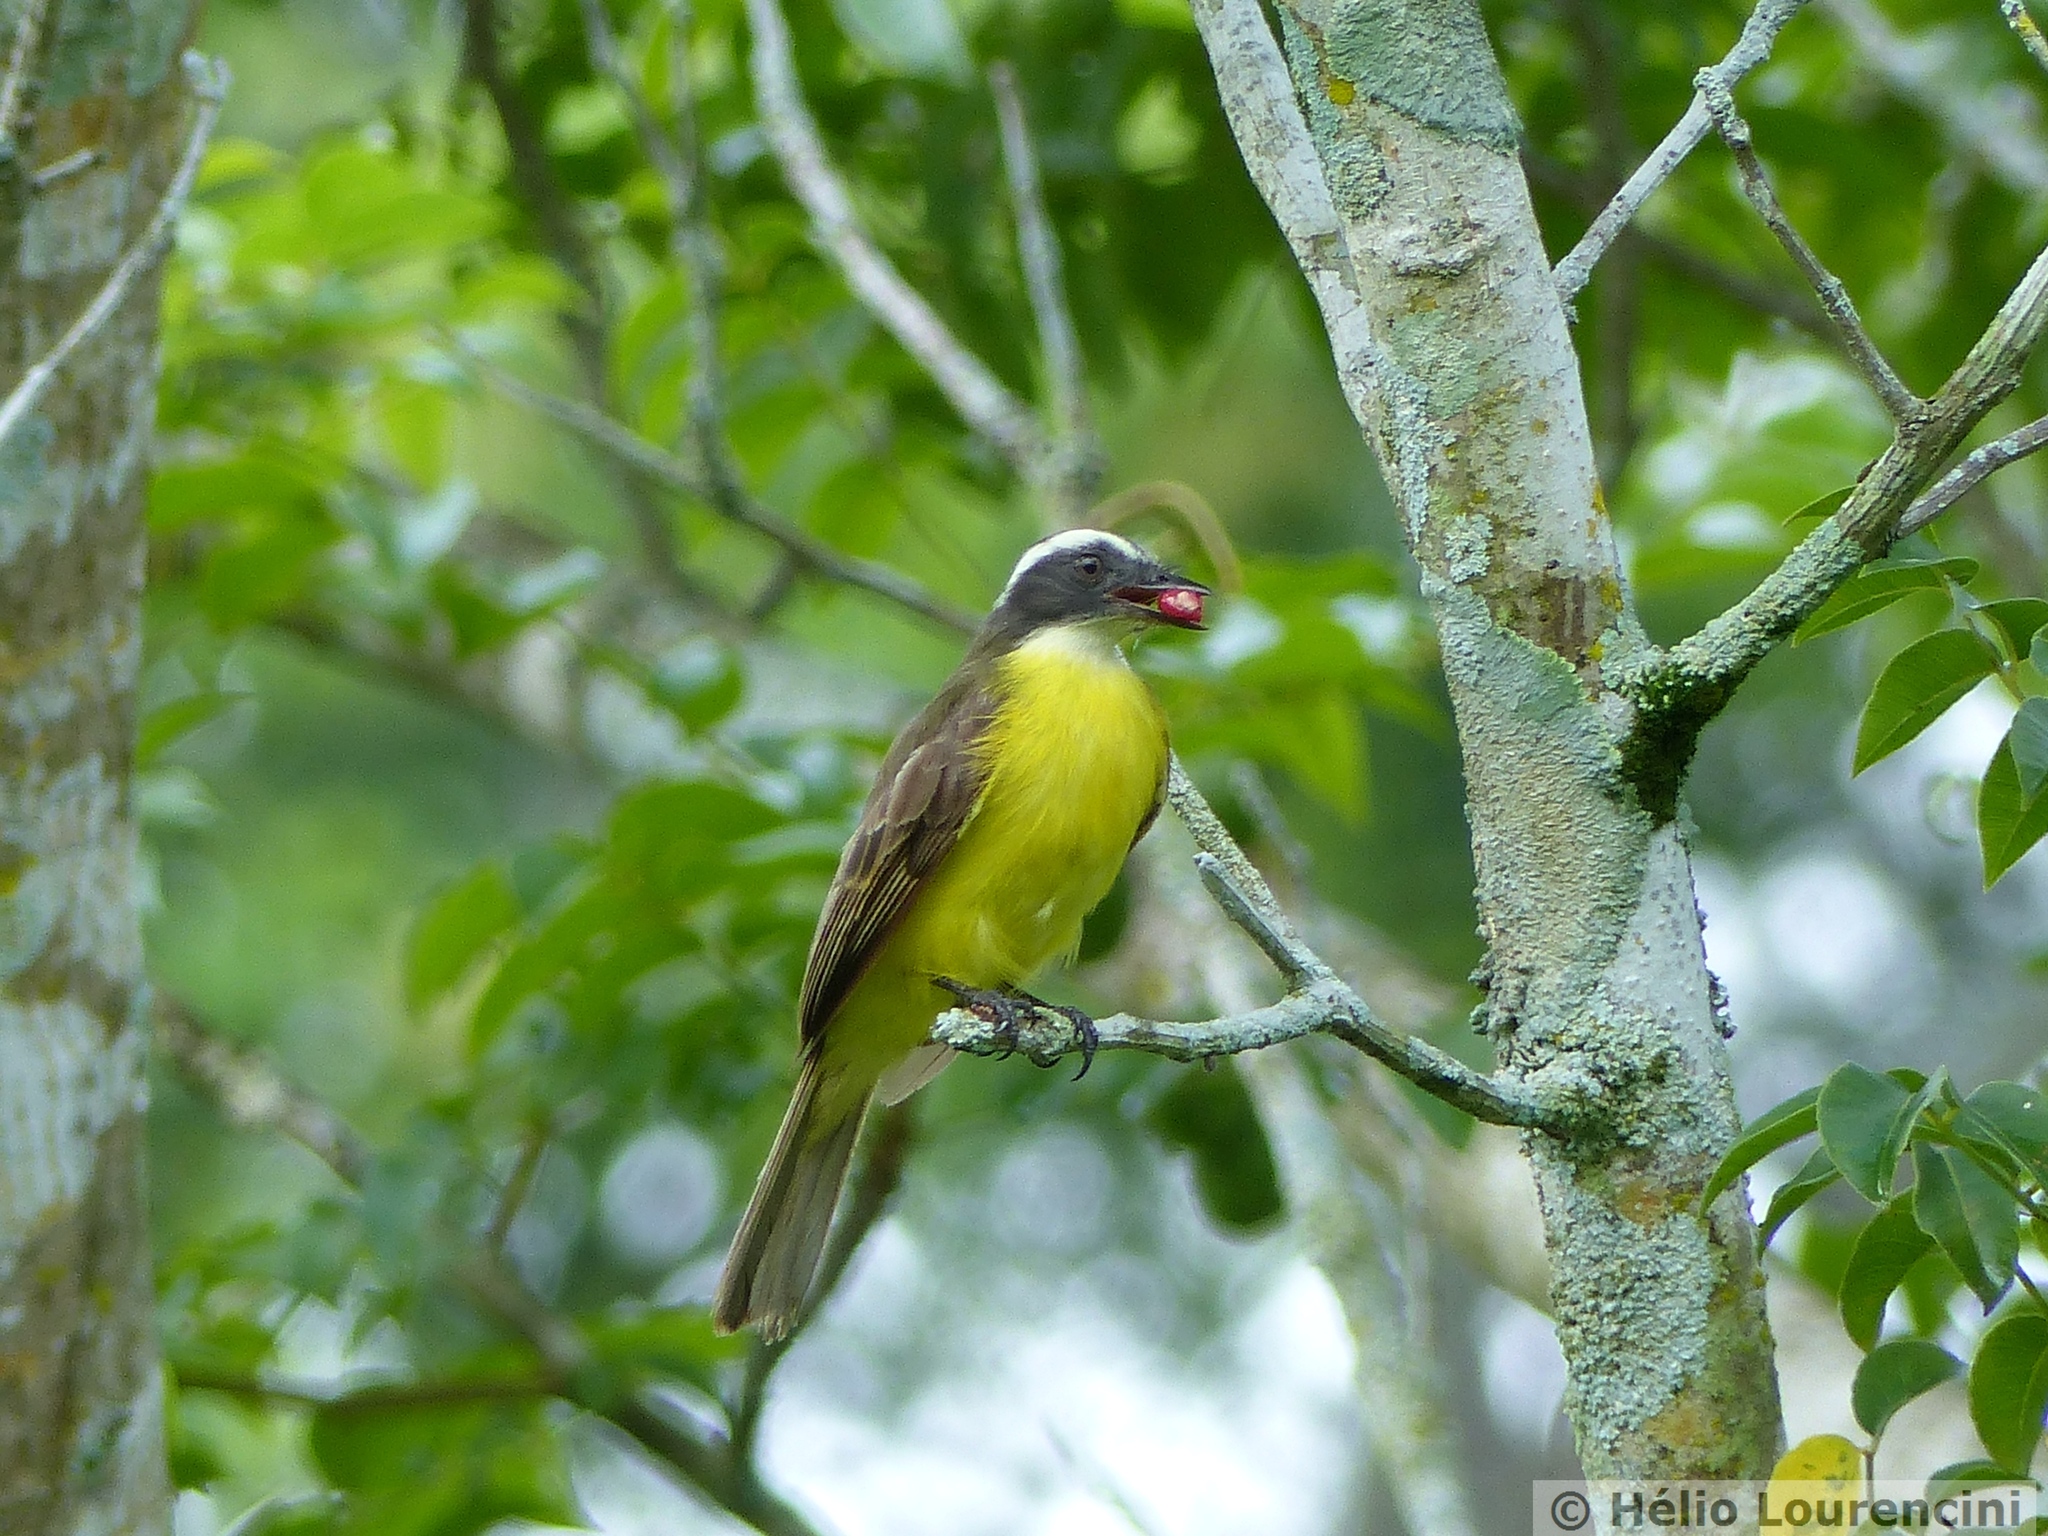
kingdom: Animalia
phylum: Chordata
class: Aves
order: Passeriformes
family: Tyrannidae
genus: Myiozetetes
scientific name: Myiozetetes similis
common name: Social flycatcher
